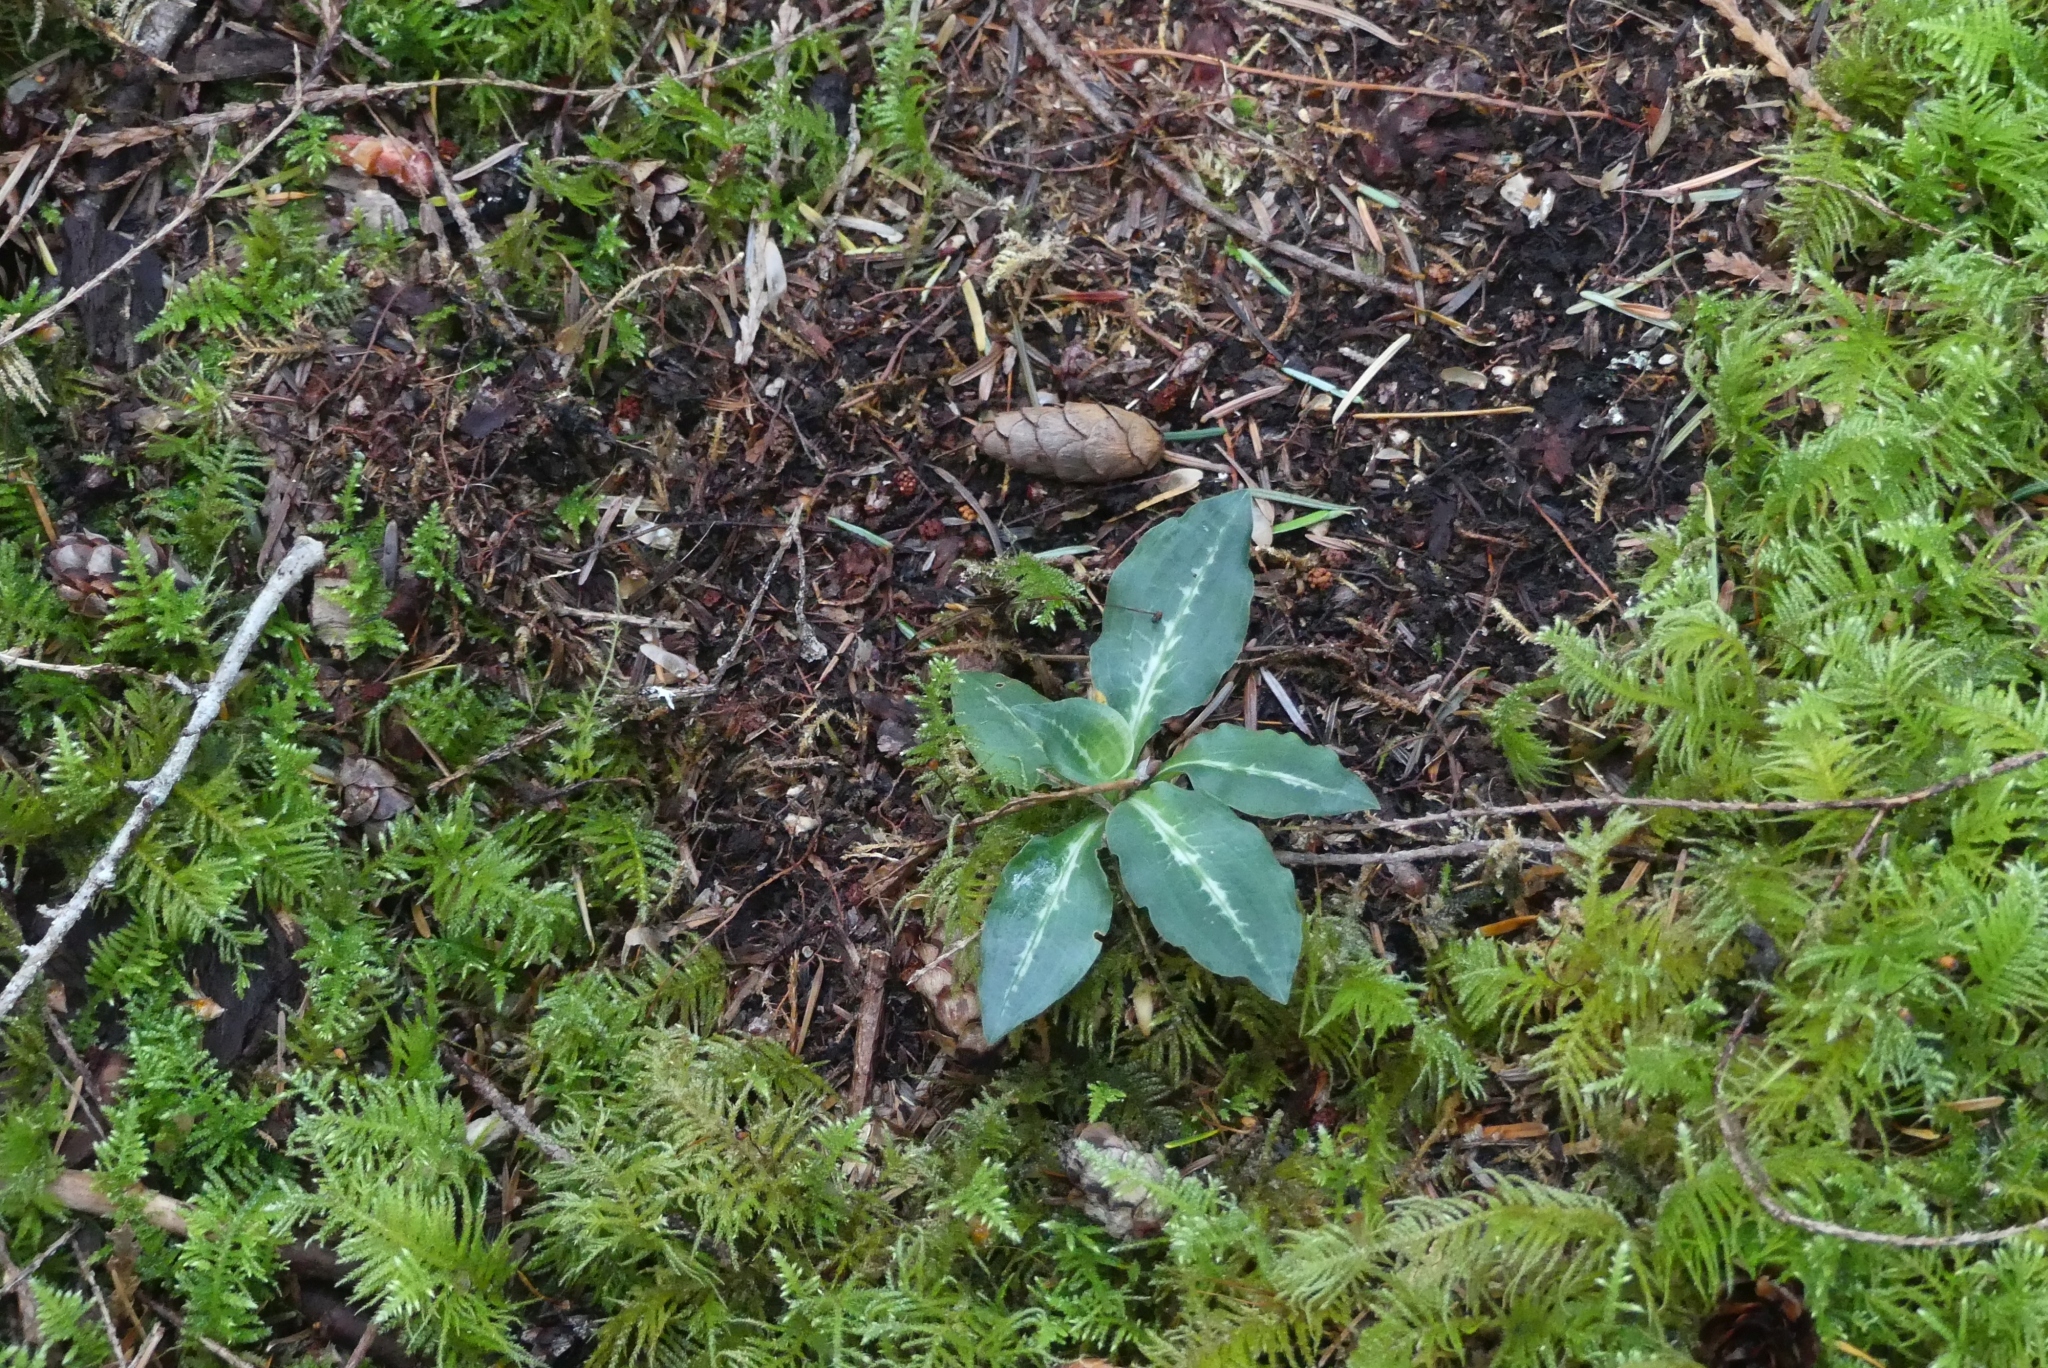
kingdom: Plantae
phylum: Tracheophyta
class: Liliopsida
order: Asparagales
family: Orchidaceae
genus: Goodyera
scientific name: Goodyera oblongifolia
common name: Giant rattlesnake-plantain
